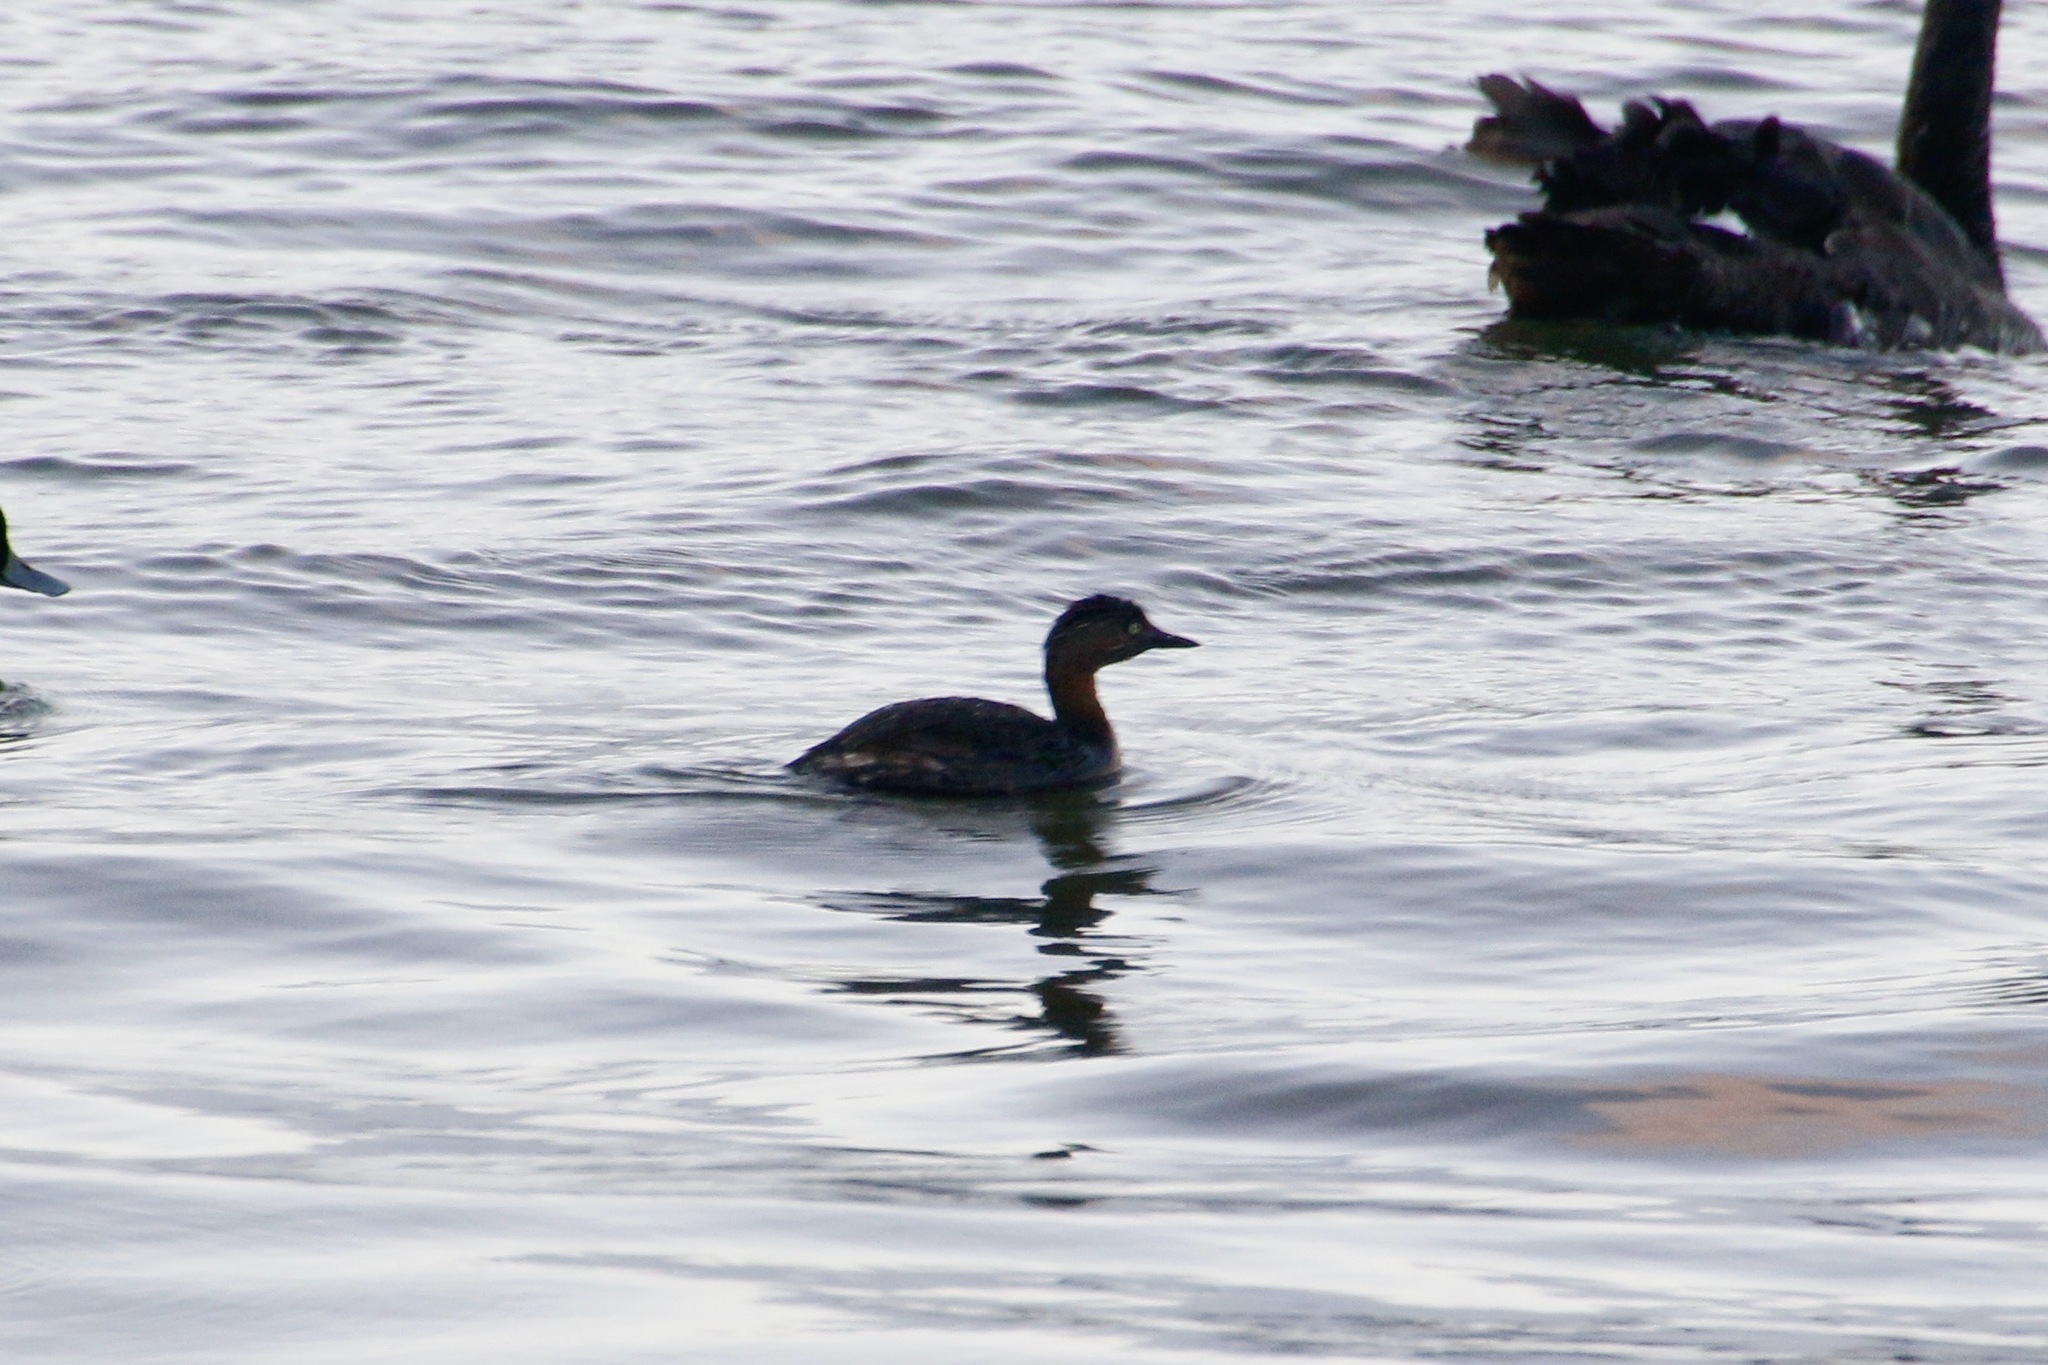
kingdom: Animalia
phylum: Chordata
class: Aves
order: Podicipediformes
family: Podicipedidae
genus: Poliocephalus
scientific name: Poliocephalus rufopectus
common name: New zealand grebe
